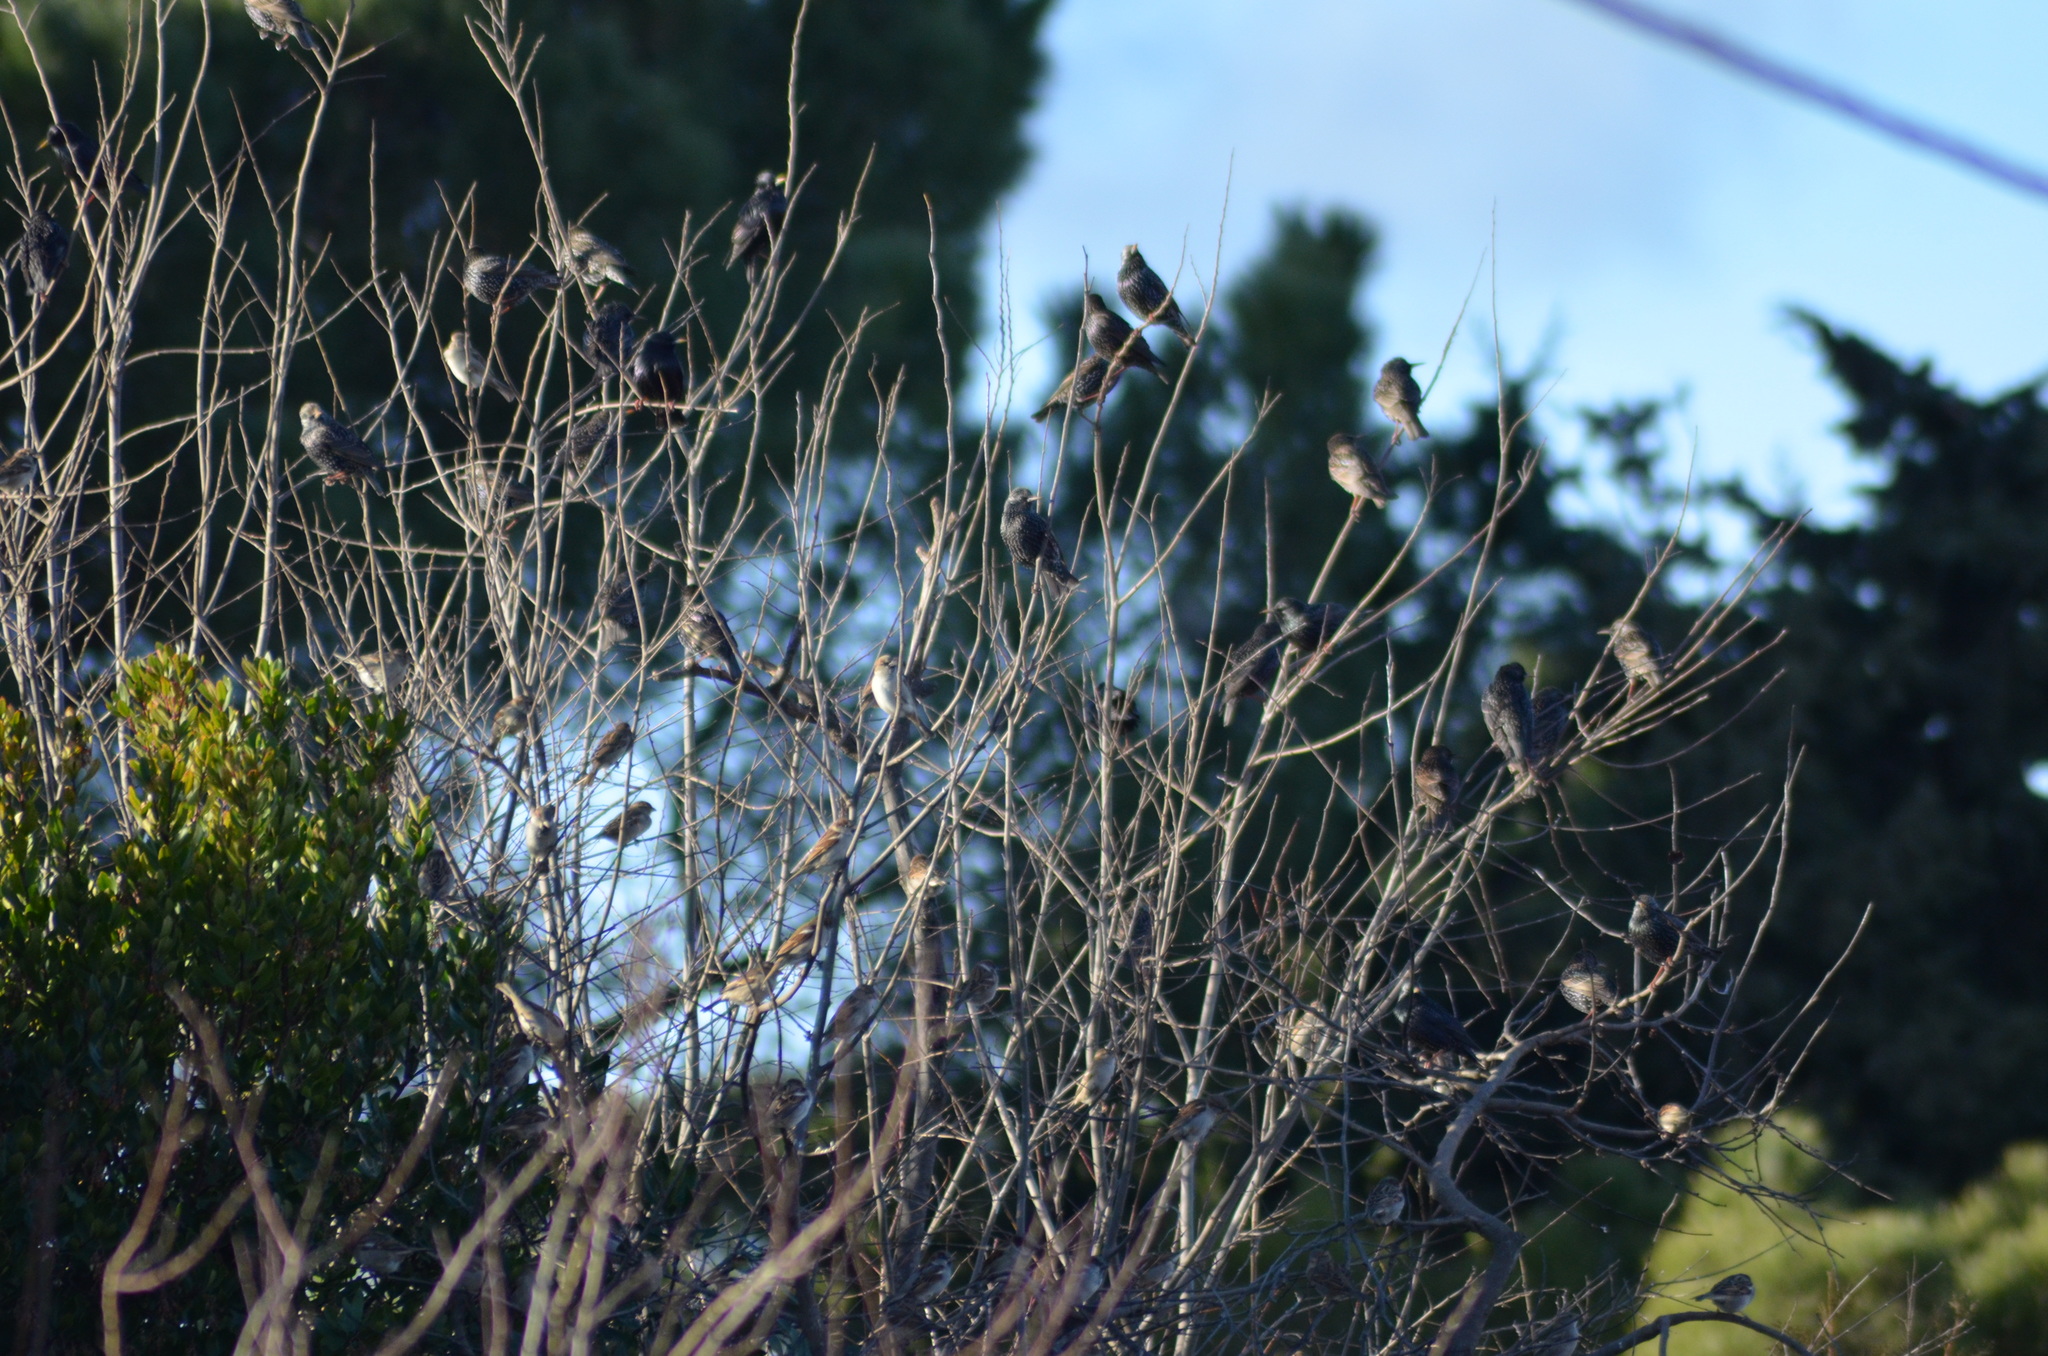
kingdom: Animalia
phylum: Chordata
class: Aves
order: Passeriformes
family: Sturnidae
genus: Sturnus
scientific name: Sturnus vulgaris
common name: Common starling
